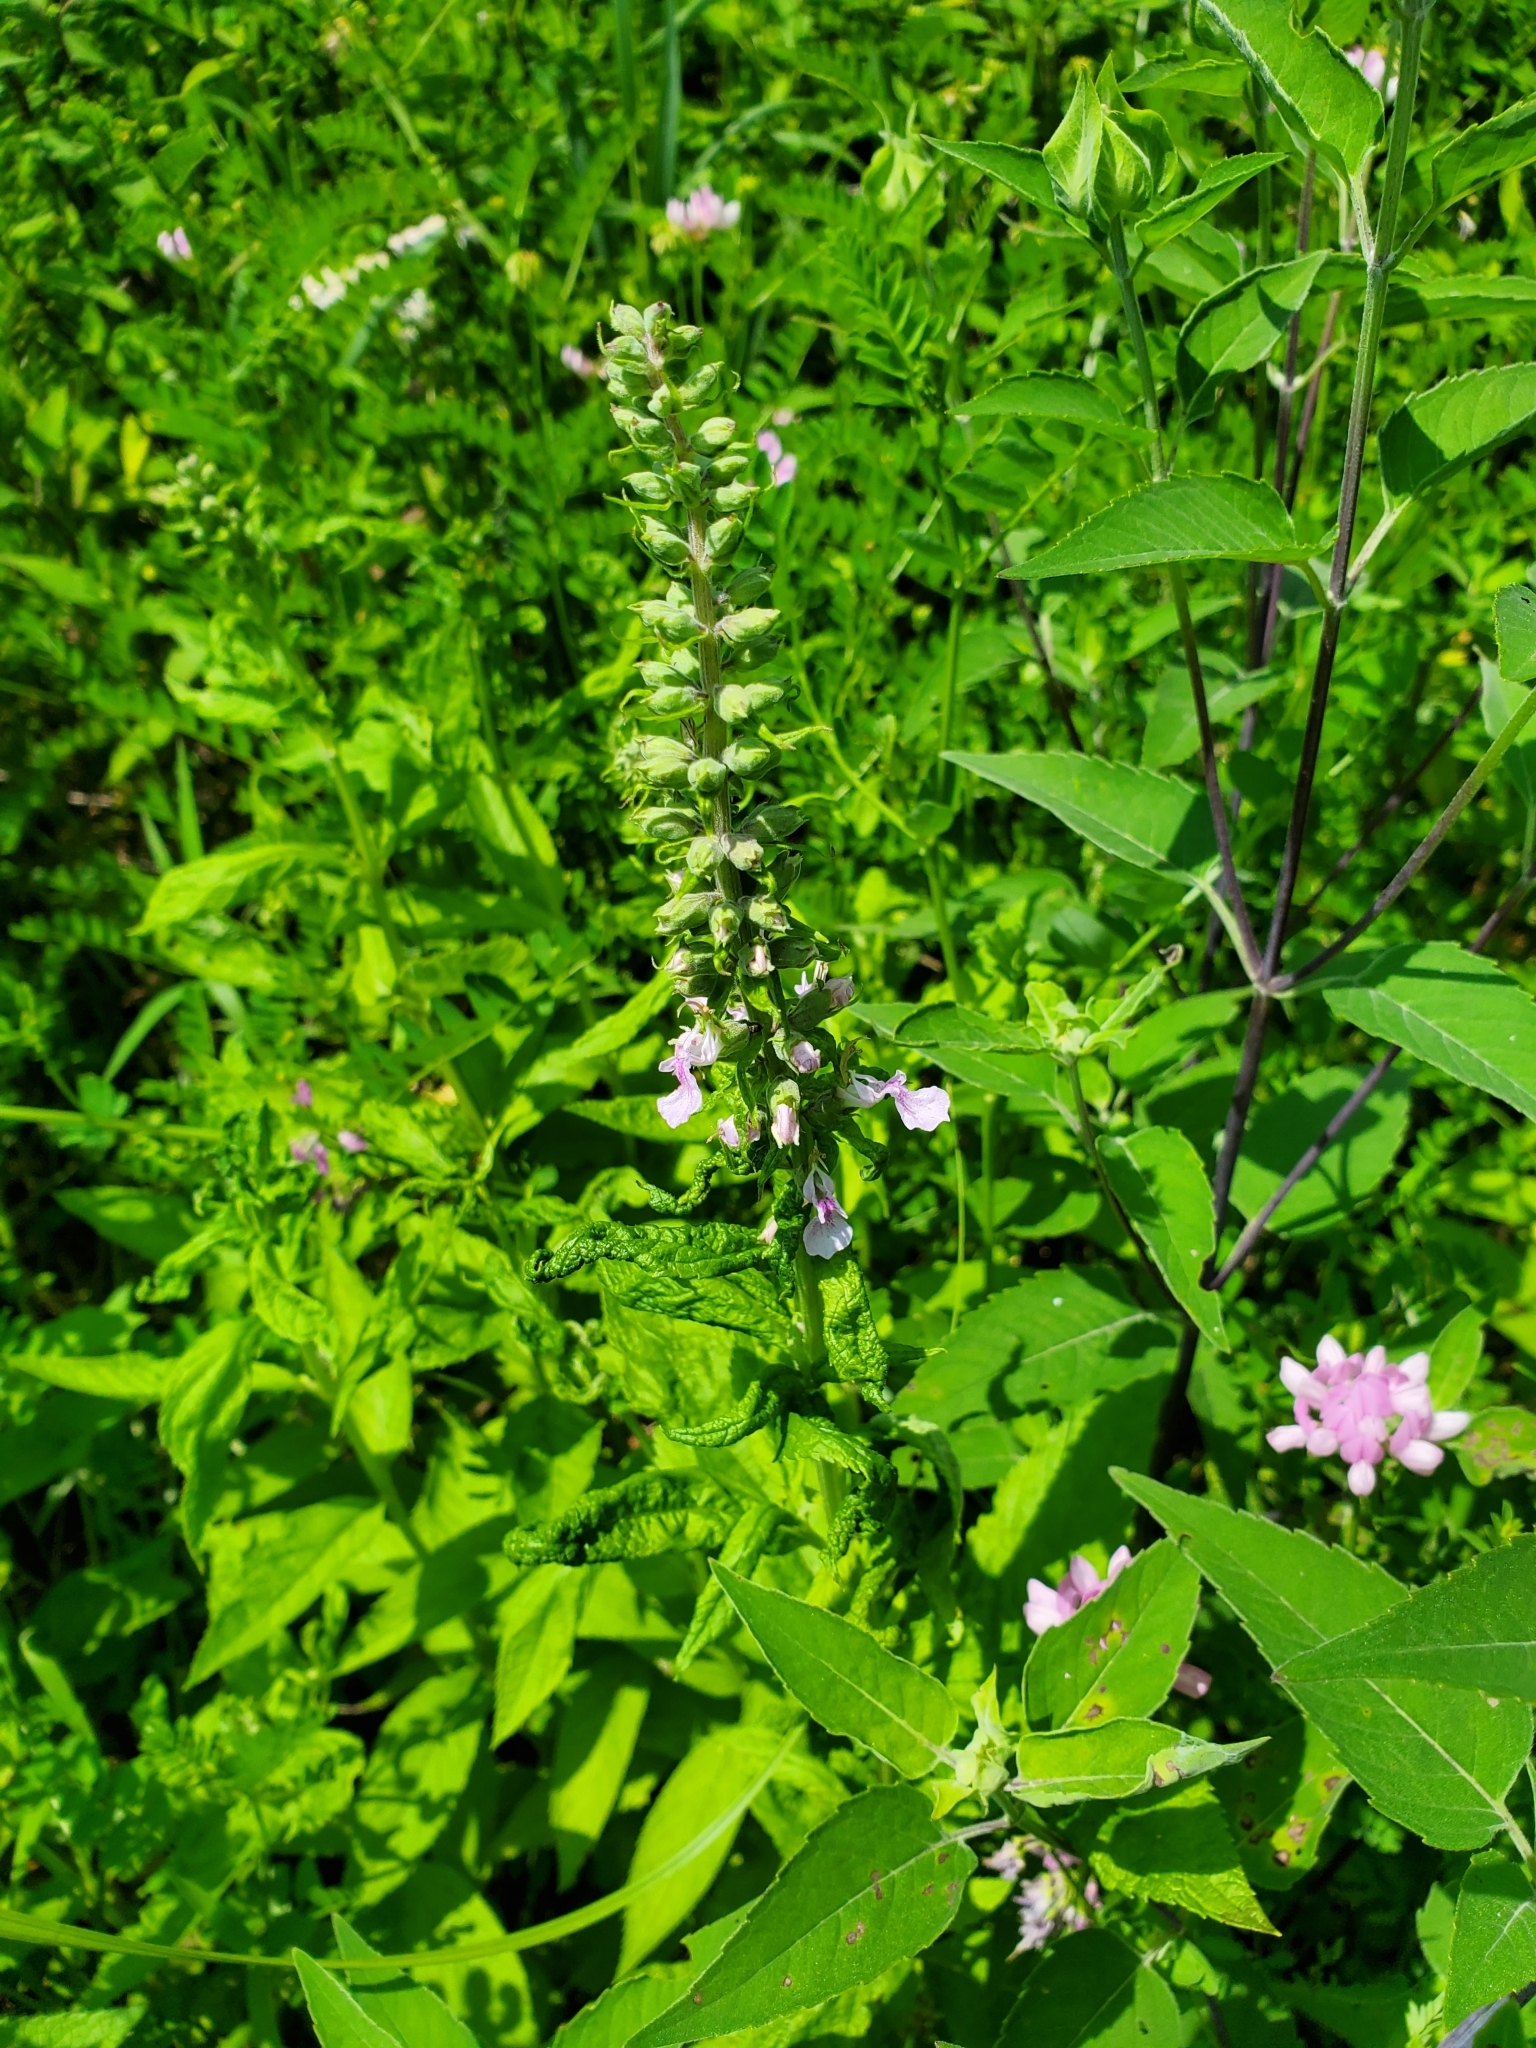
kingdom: Plantae
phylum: Tracheophyta
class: Magnoliopsida
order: Lamiales
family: Lamiaceae
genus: Teucrium
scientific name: Teucrium canadense
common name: American germander
